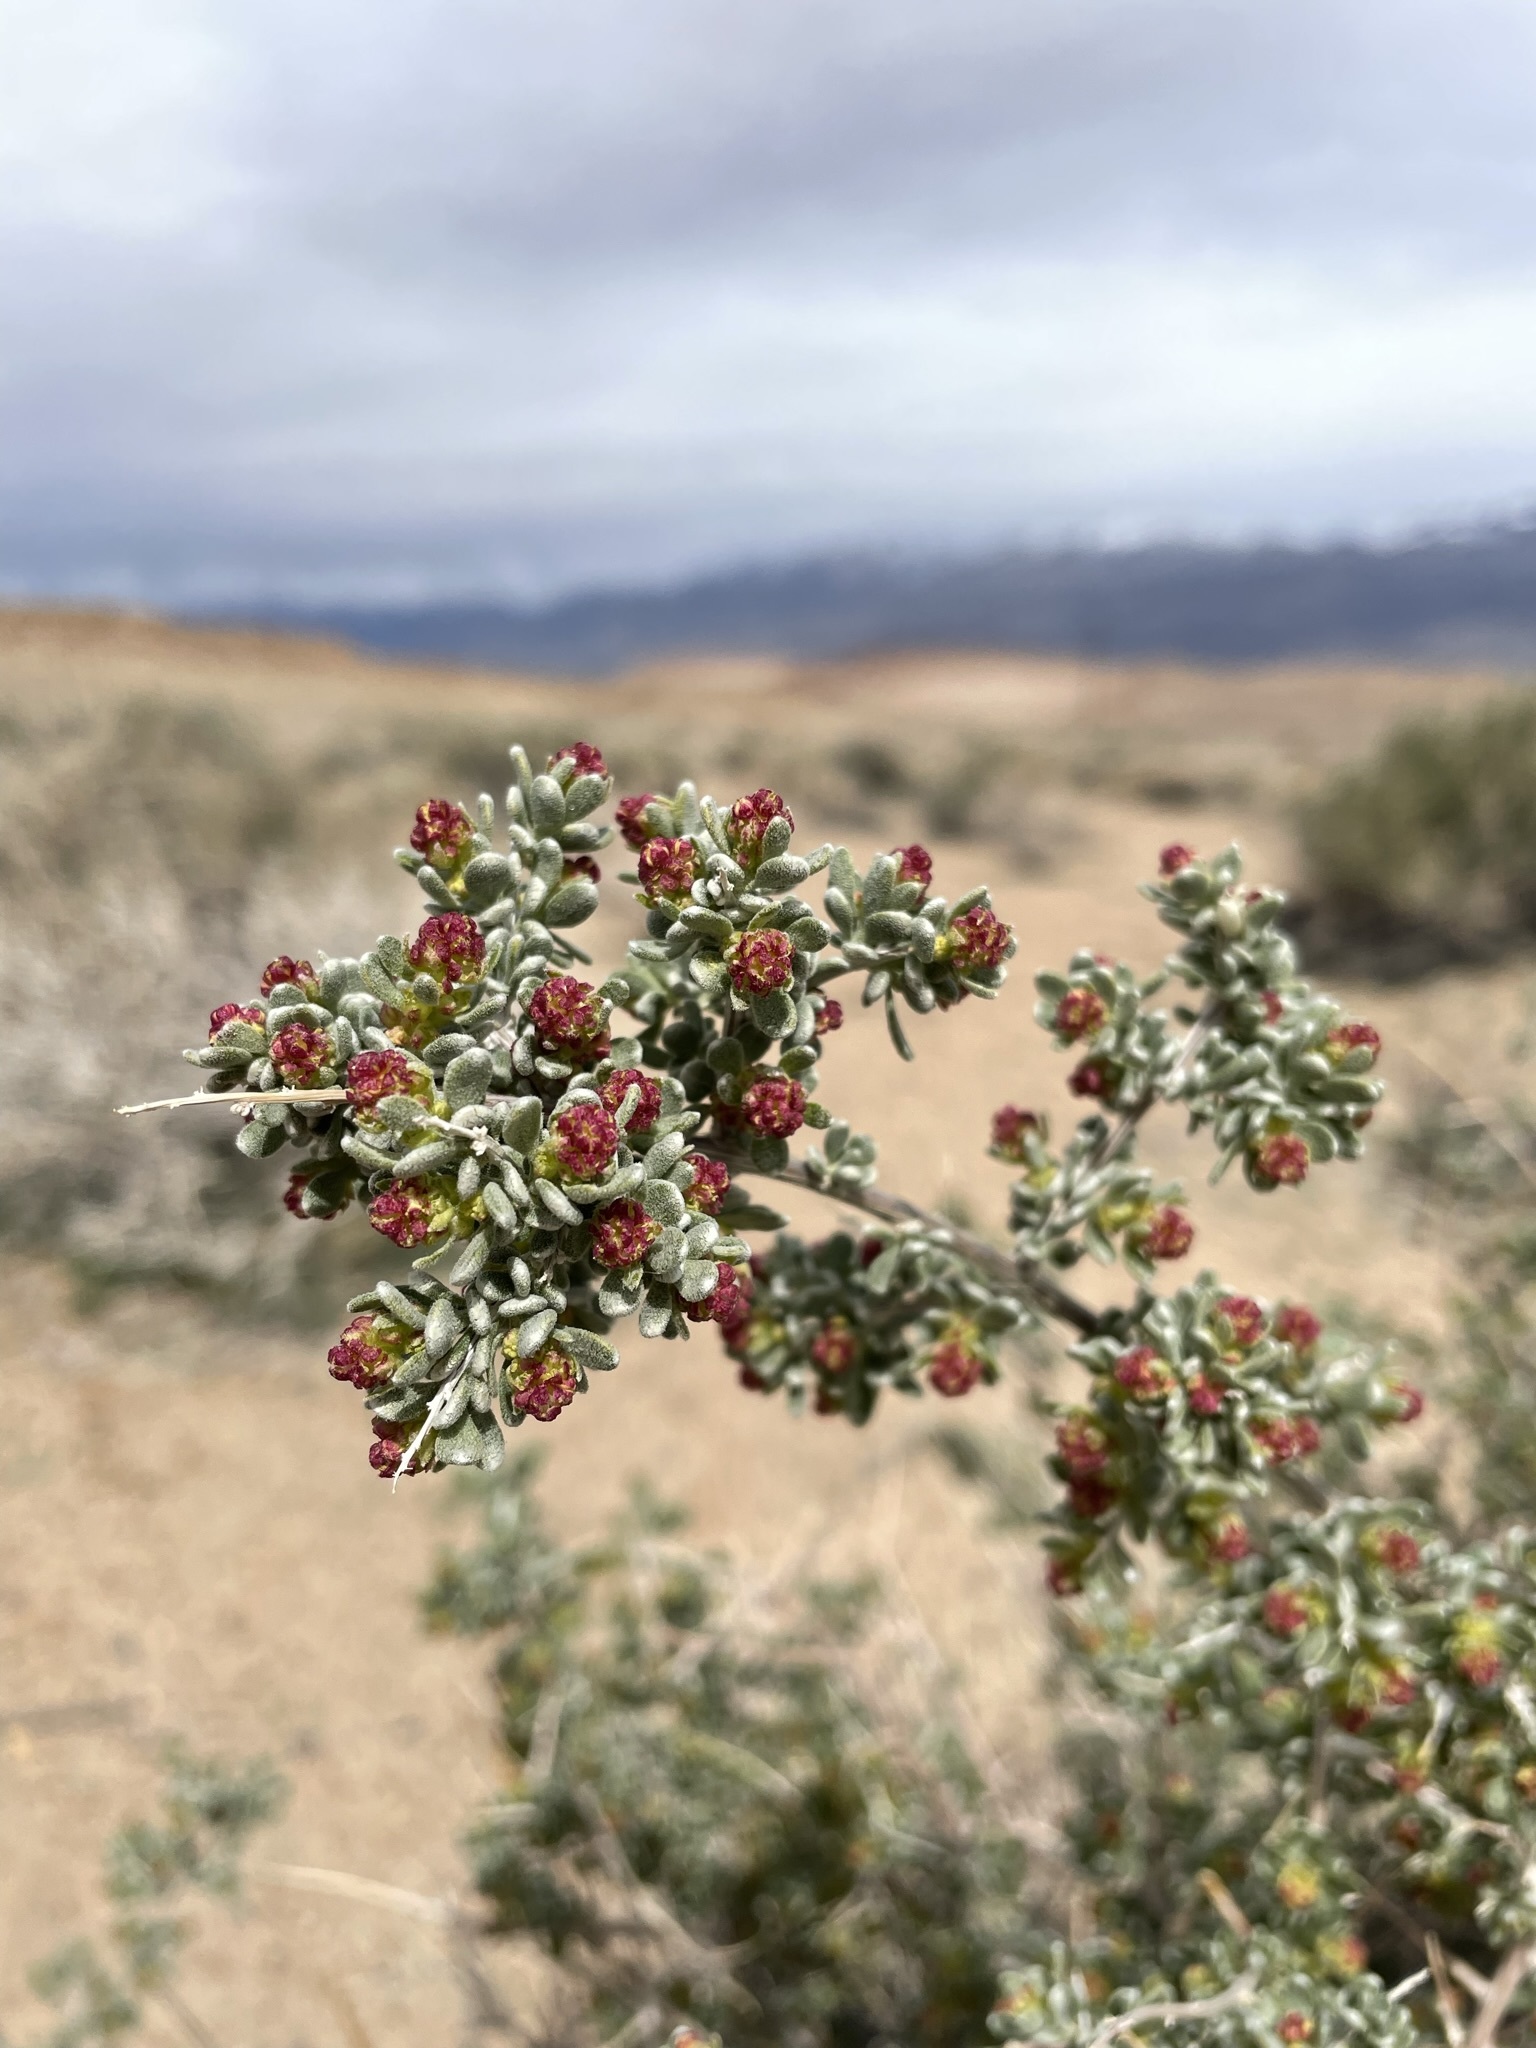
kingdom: Plantae
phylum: Tracheophyta
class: Magnoliopsida
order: Caryophyllales
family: Amaranthaceae
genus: Grayia
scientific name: Grayia spinosa
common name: Spiny hopsage
